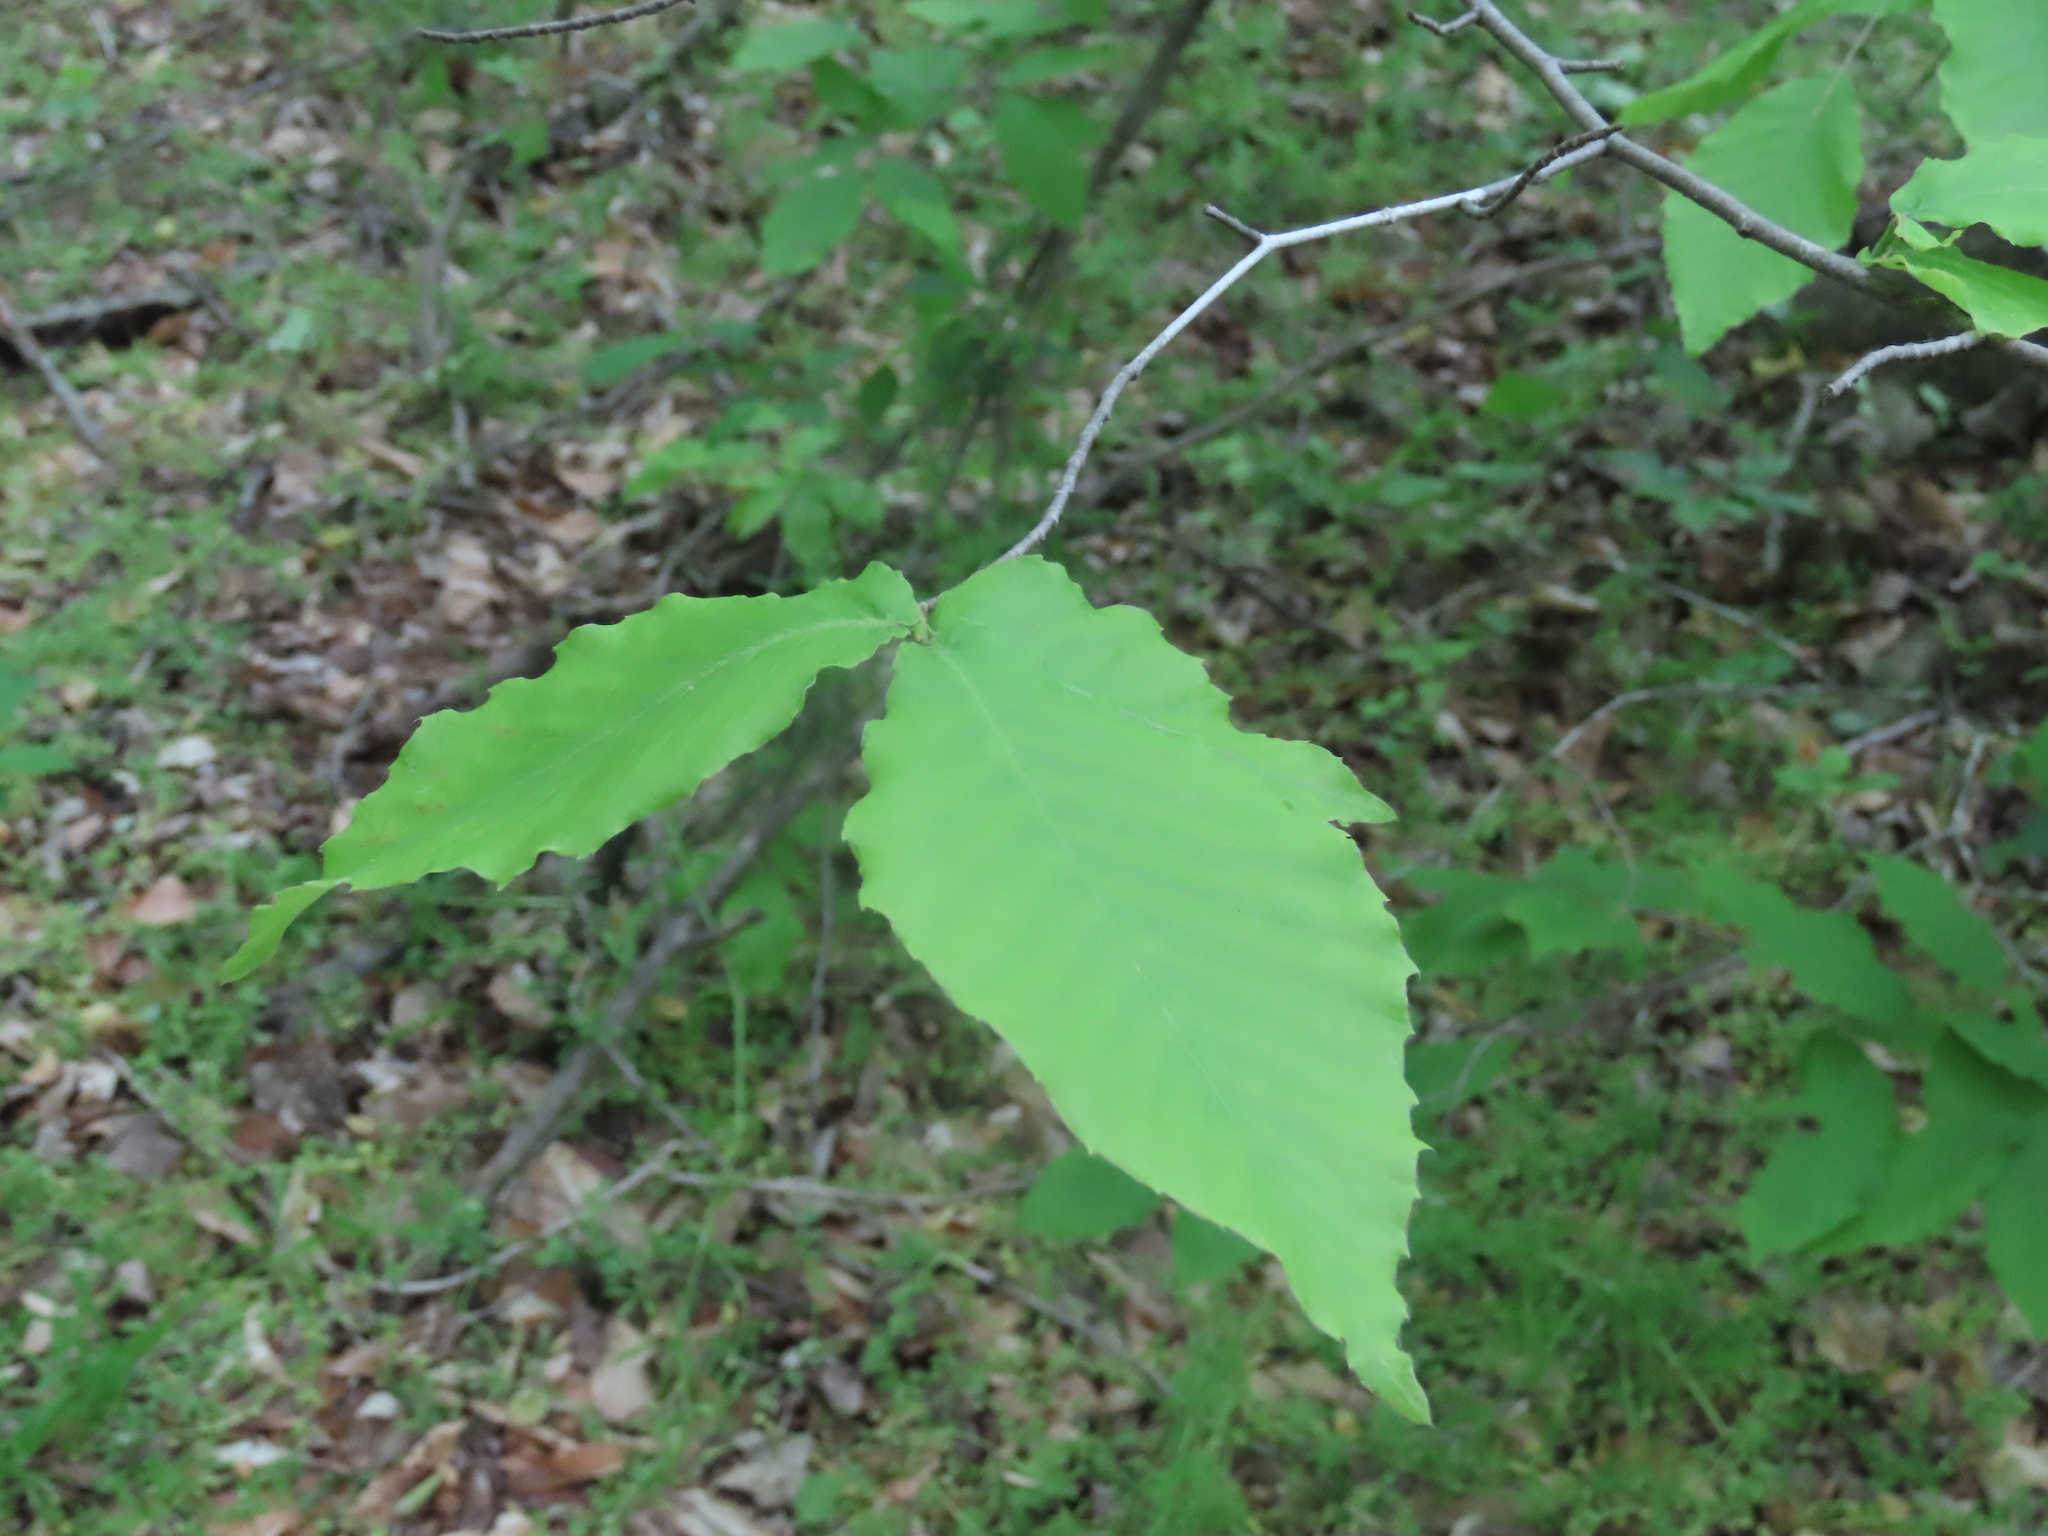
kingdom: Plantae
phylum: Tracheophyta
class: Magnoliopsida
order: Fagales
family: Fagaceae
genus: Fagus
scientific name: Fagus grandifolia
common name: American beech
